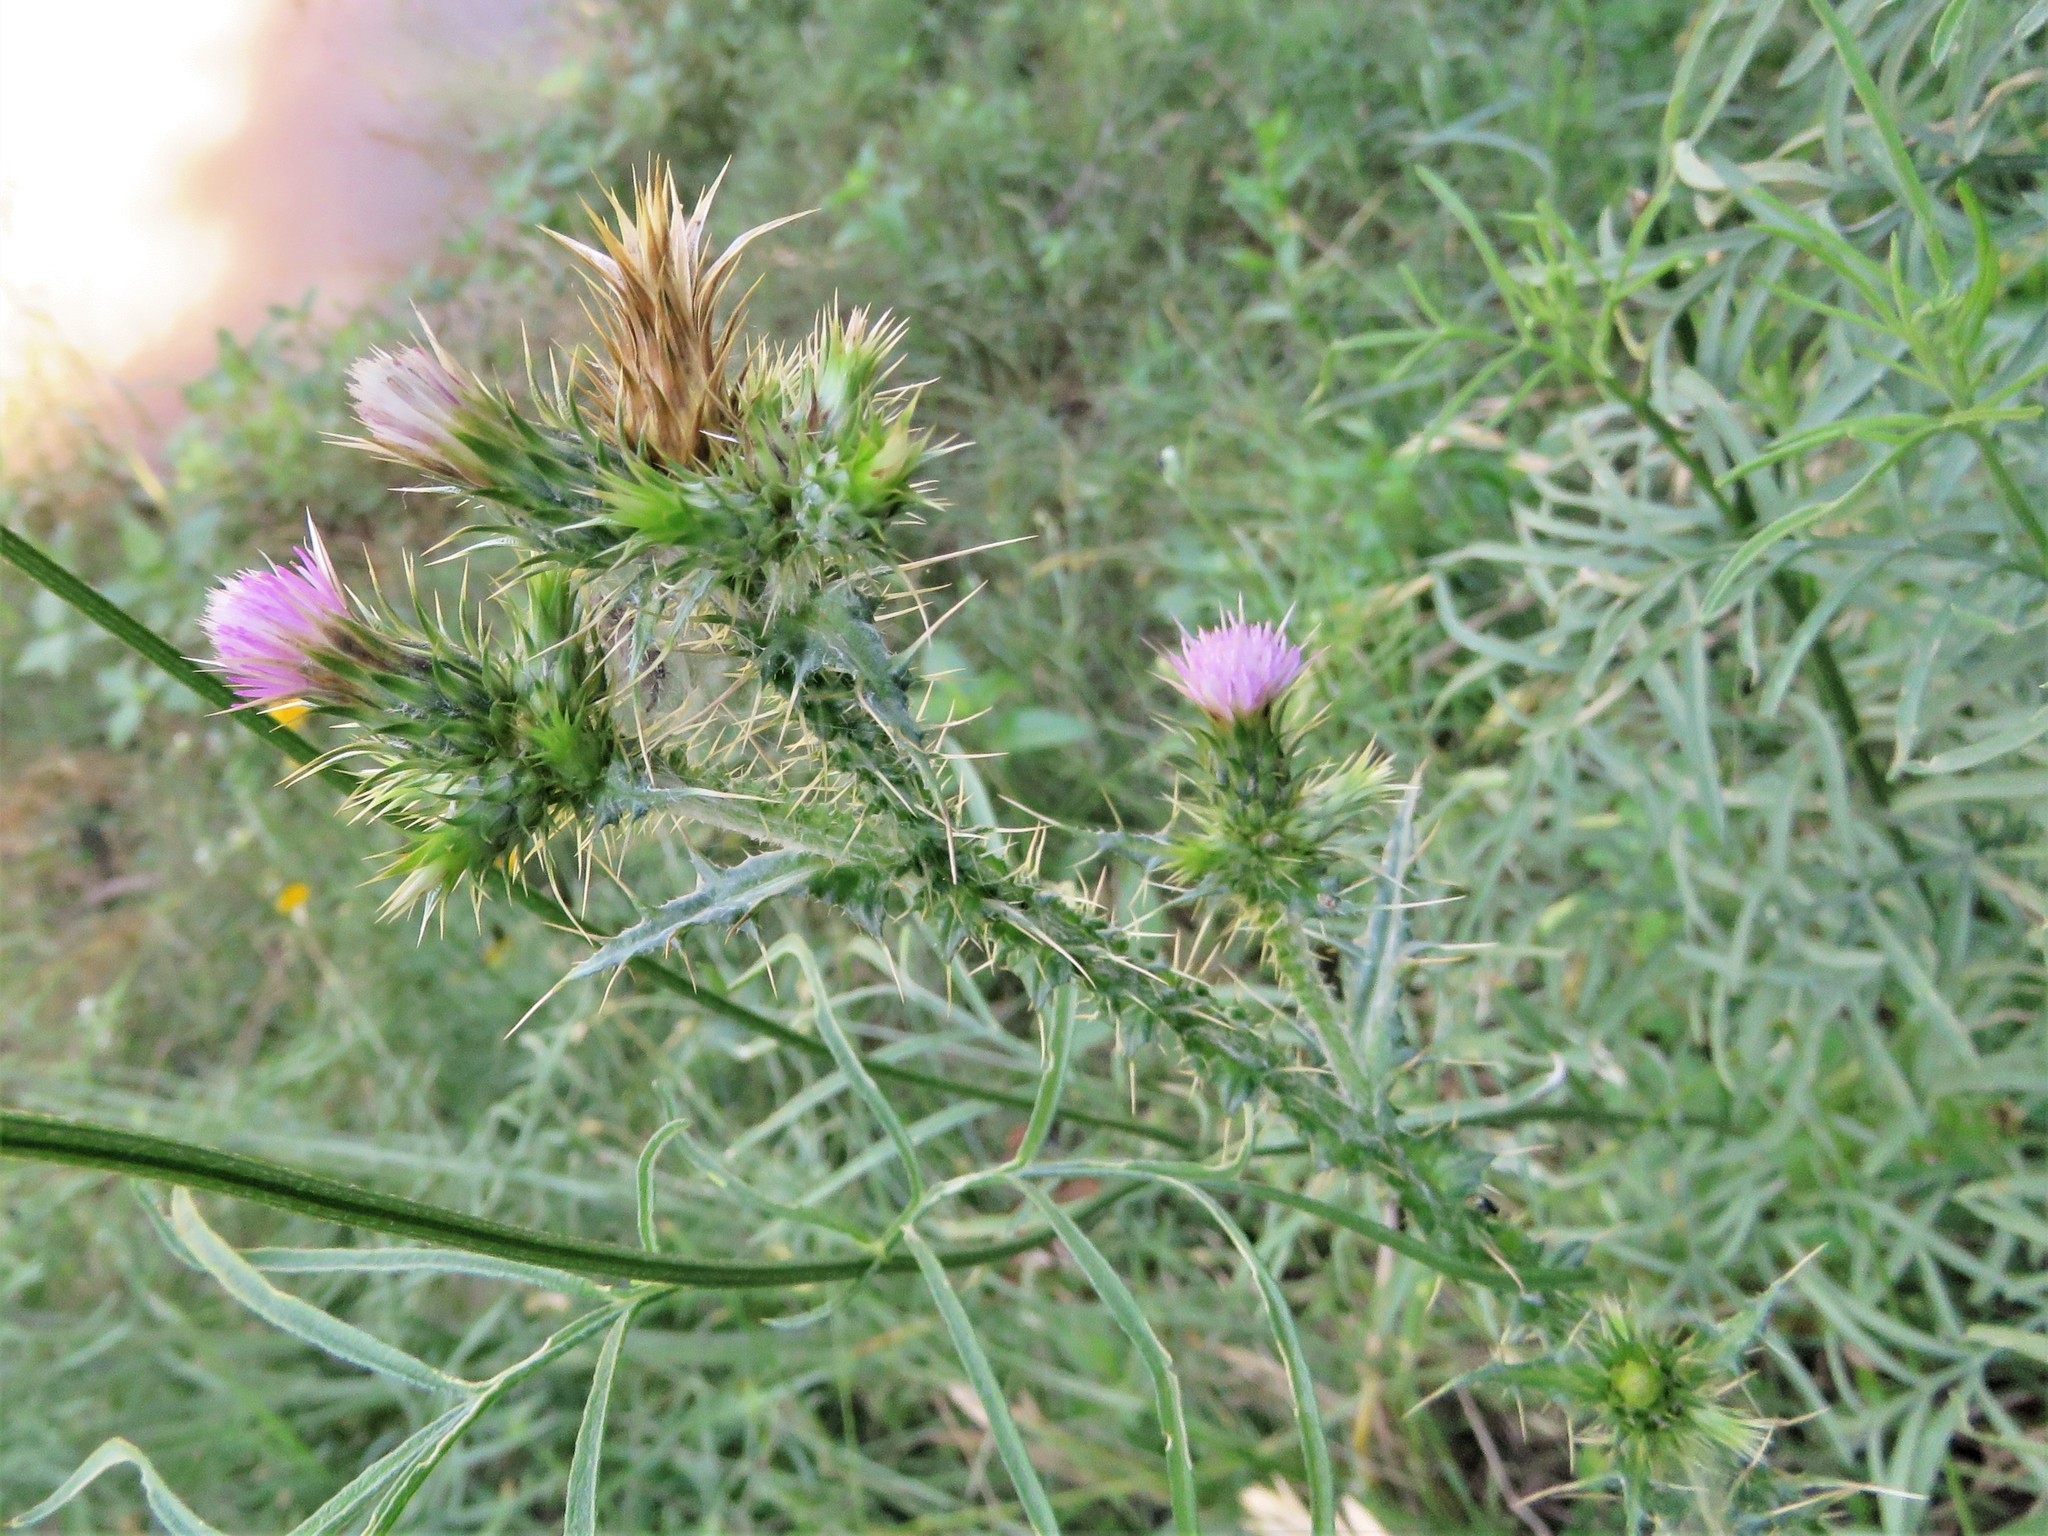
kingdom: Plantae
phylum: Tracheophyta
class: Magnoliopsida
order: Asterales
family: Asteraceae
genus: Carduus
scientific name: Carduus tenuiflorus
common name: Slender thistle
